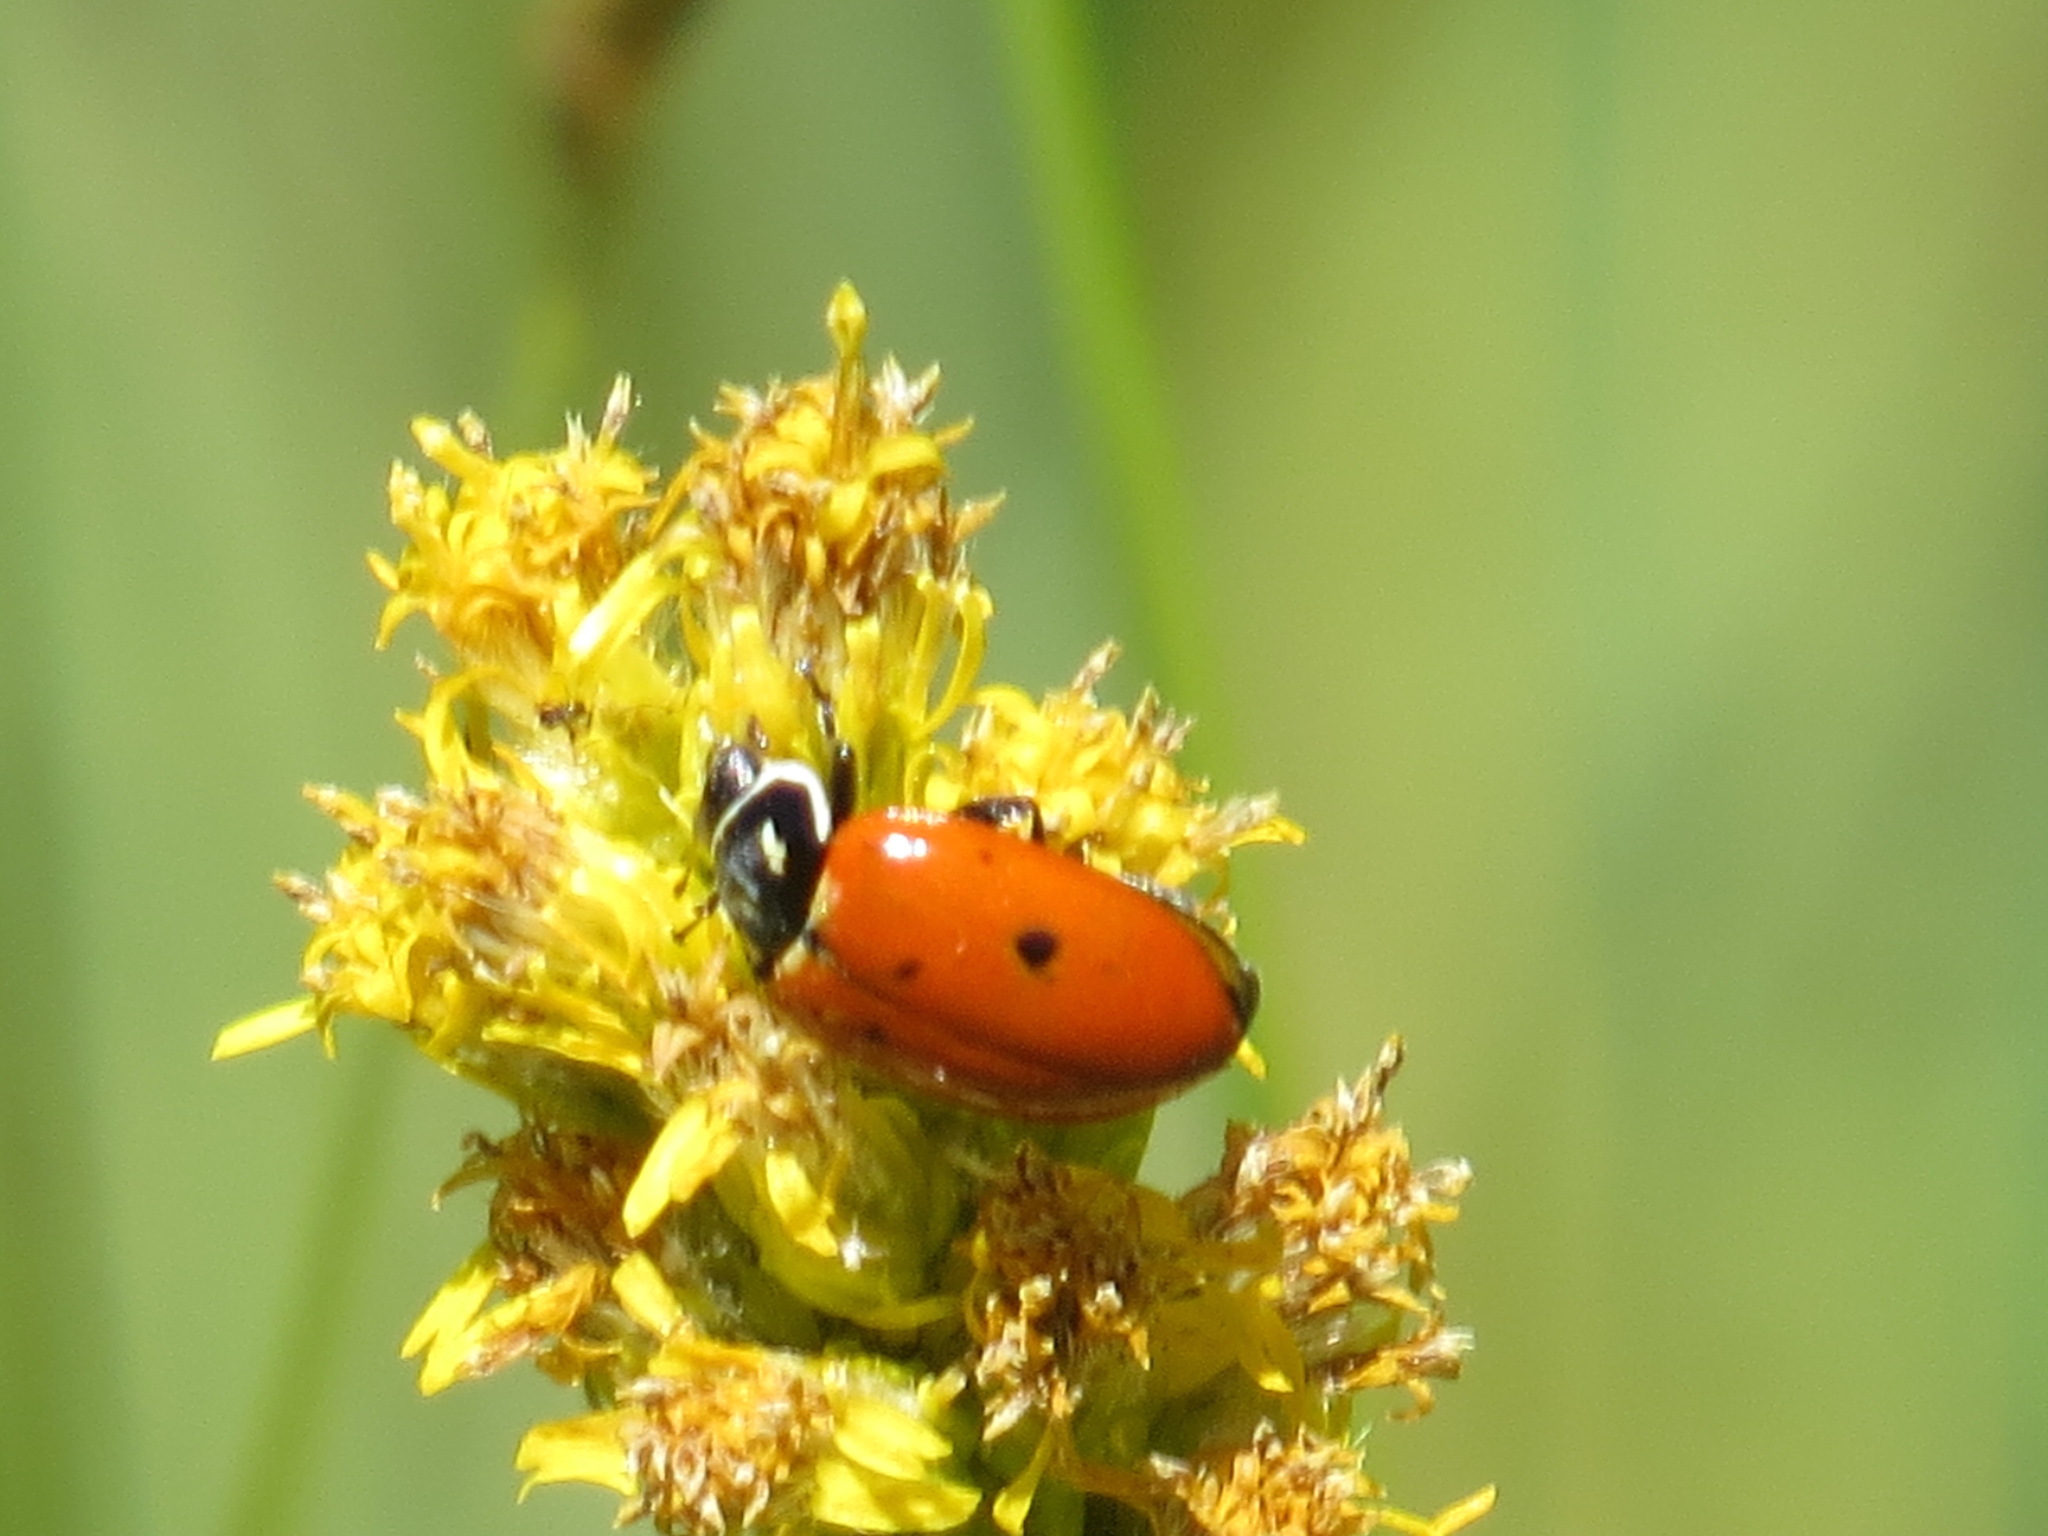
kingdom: Animalia
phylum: Arthropoda
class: Insecta
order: Coleoptera
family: Coccinellidae
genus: Hippodamia
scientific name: Hippodamia convergens
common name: Convergent lady beetle
